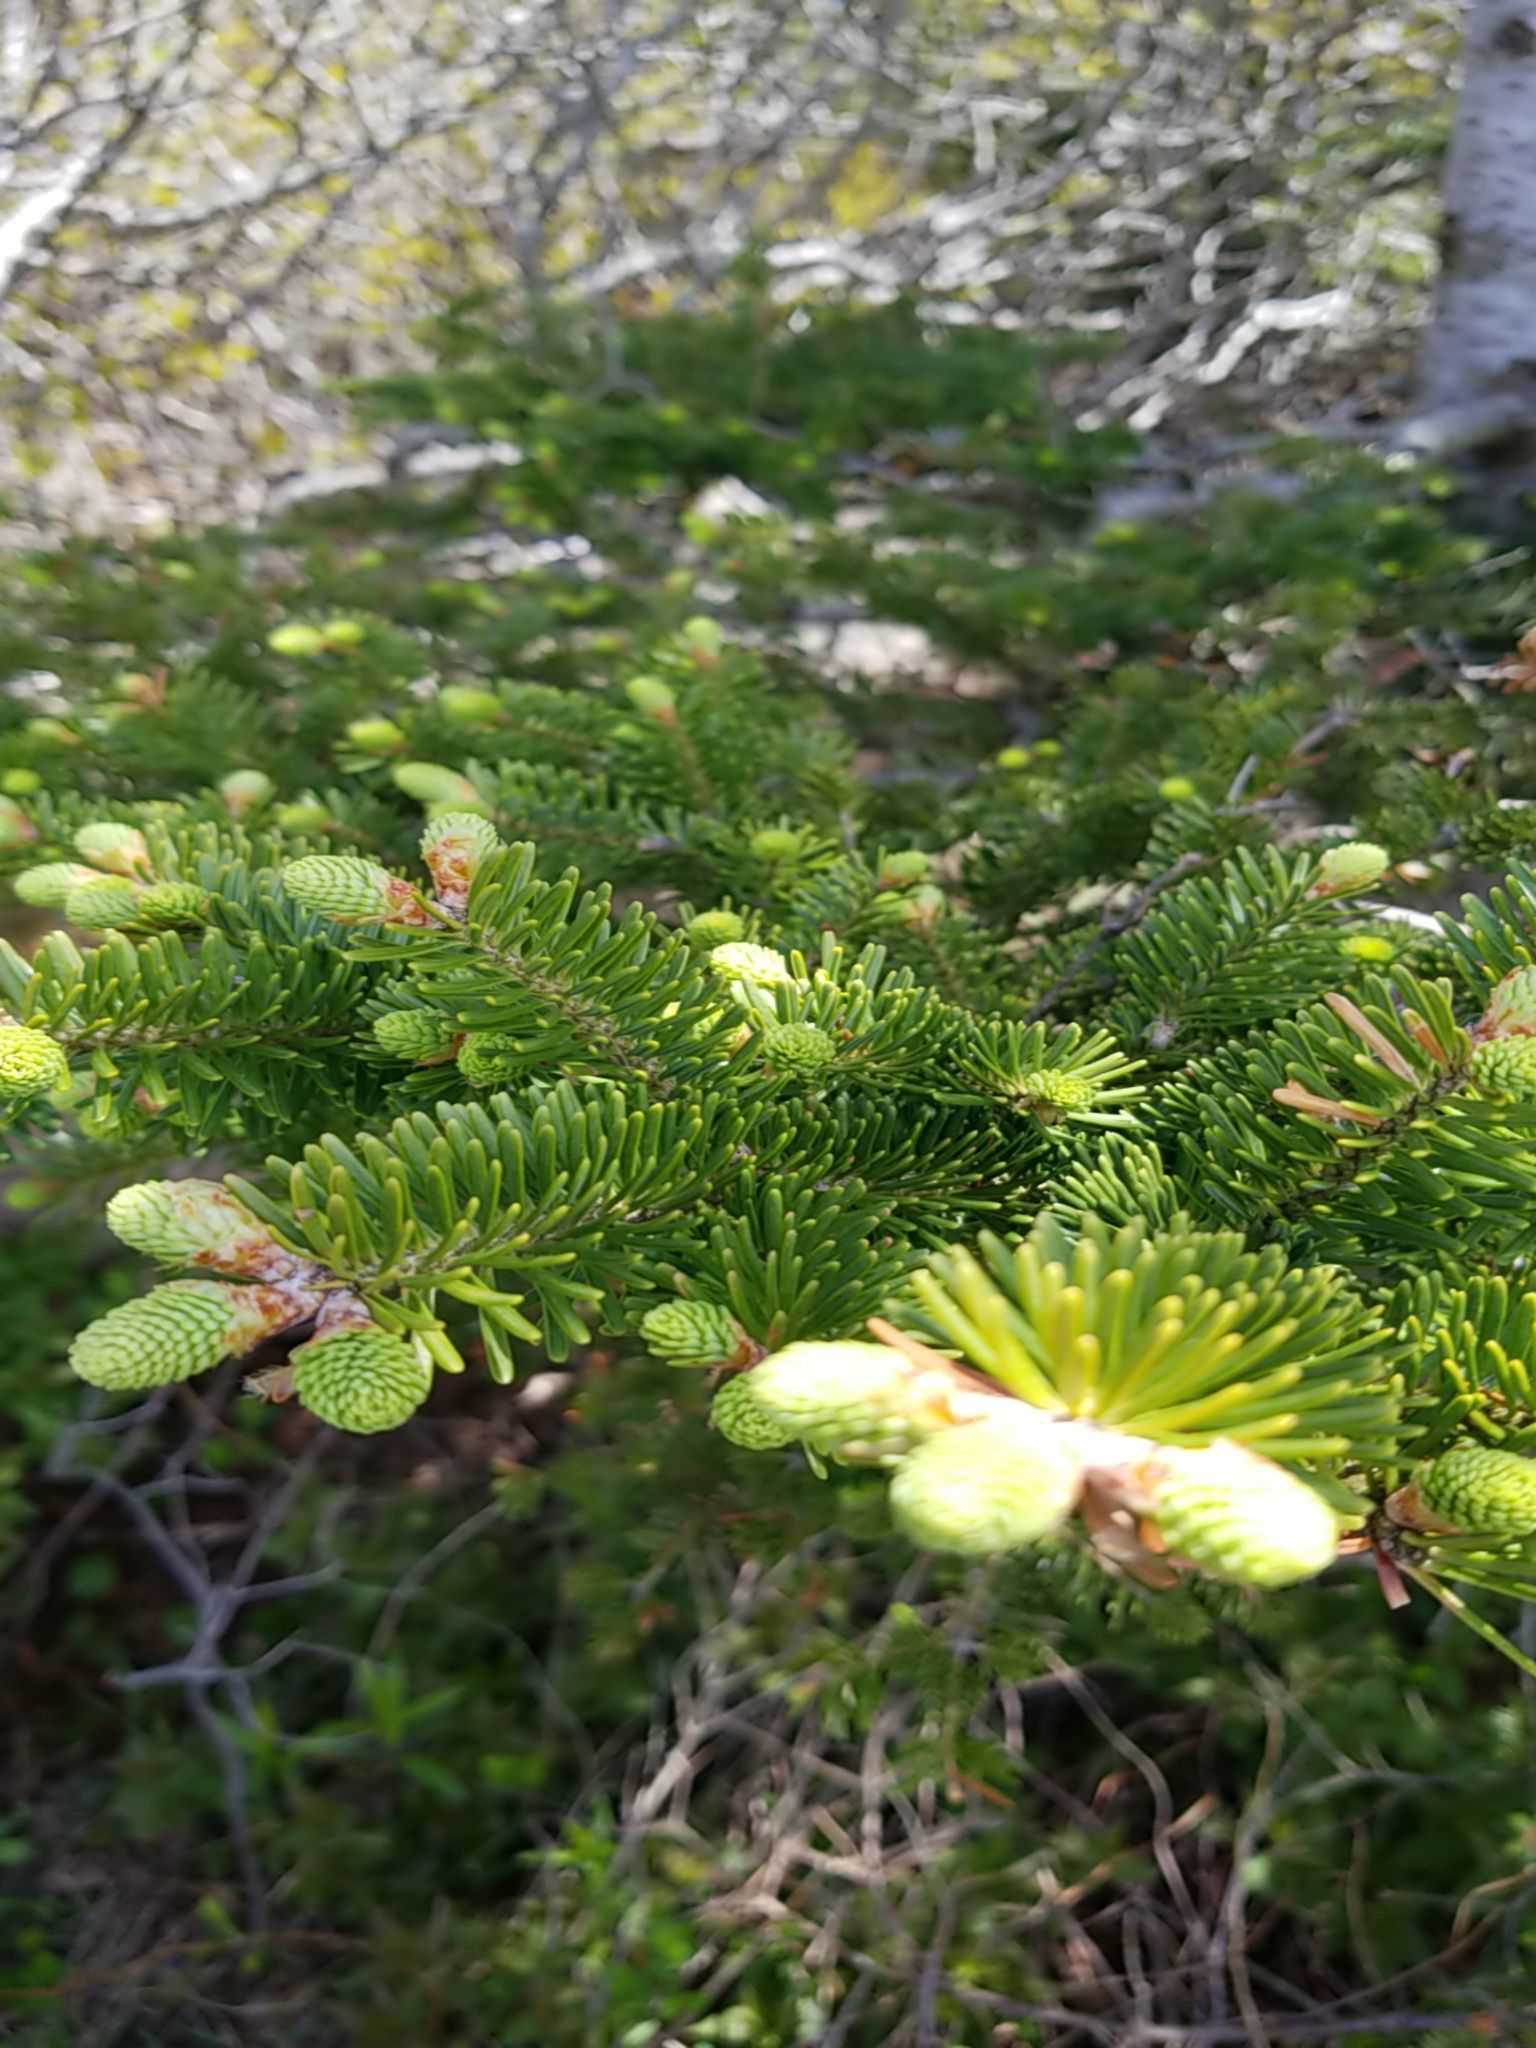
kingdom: Plantae
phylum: Tracheophyta
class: Pinopsida
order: Pinales
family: Pinaceae
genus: Abies
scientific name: Abies balsamea
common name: Balsam fir
